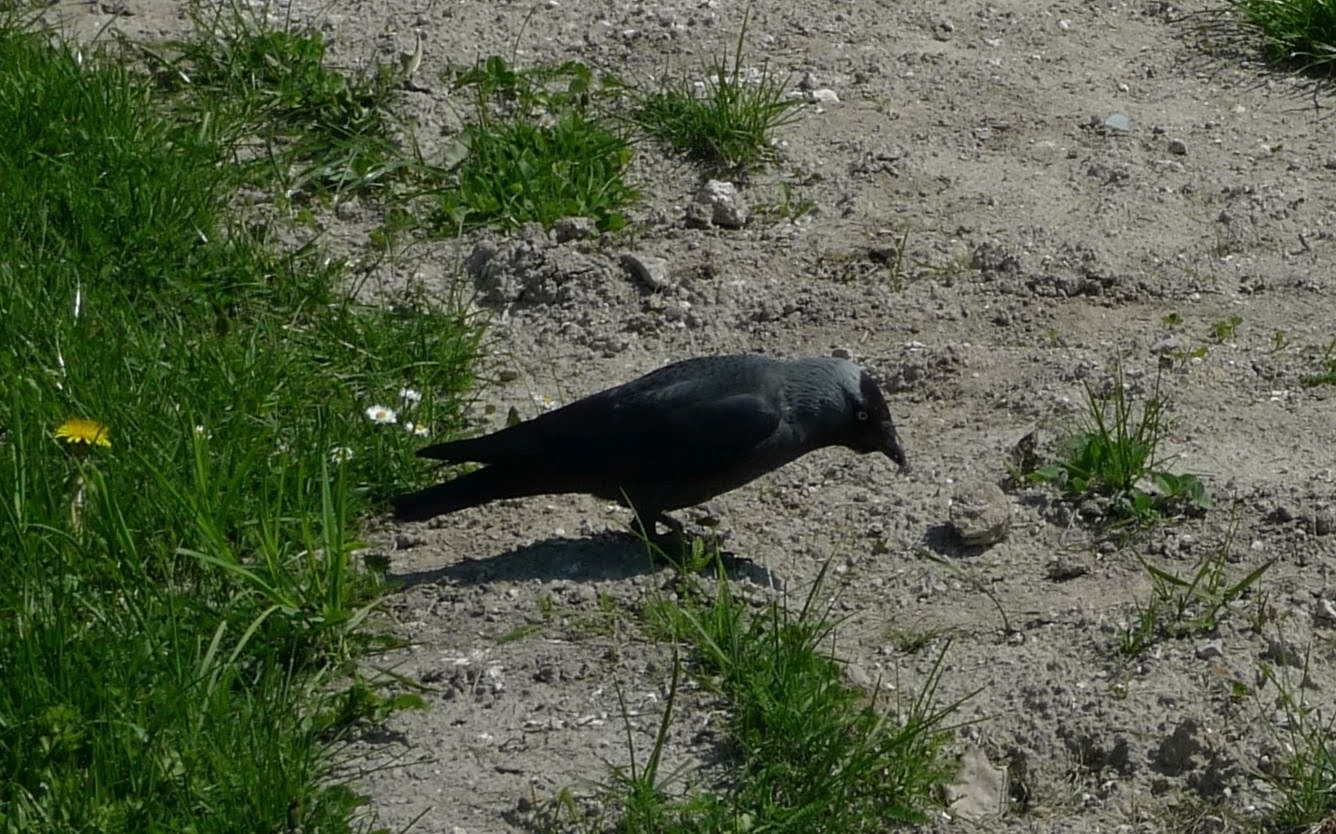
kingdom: Animalia
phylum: Chordata
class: Aves
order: Passeriformes
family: Corvidae
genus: Coloeus
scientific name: Coloeus monedula
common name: Western jackdaw
